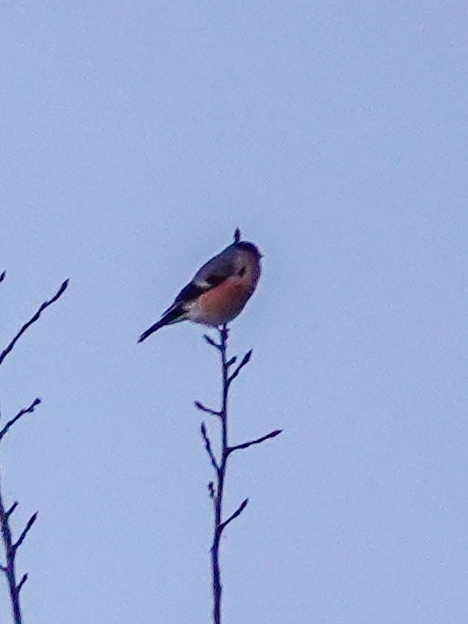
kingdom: Animalia
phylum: Chordata
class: Aves
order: Passeriformes
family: Fringillidae
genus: Pyrrhula
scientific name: Pyrrhula pyrrhula
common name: Eurasian bullfinch
